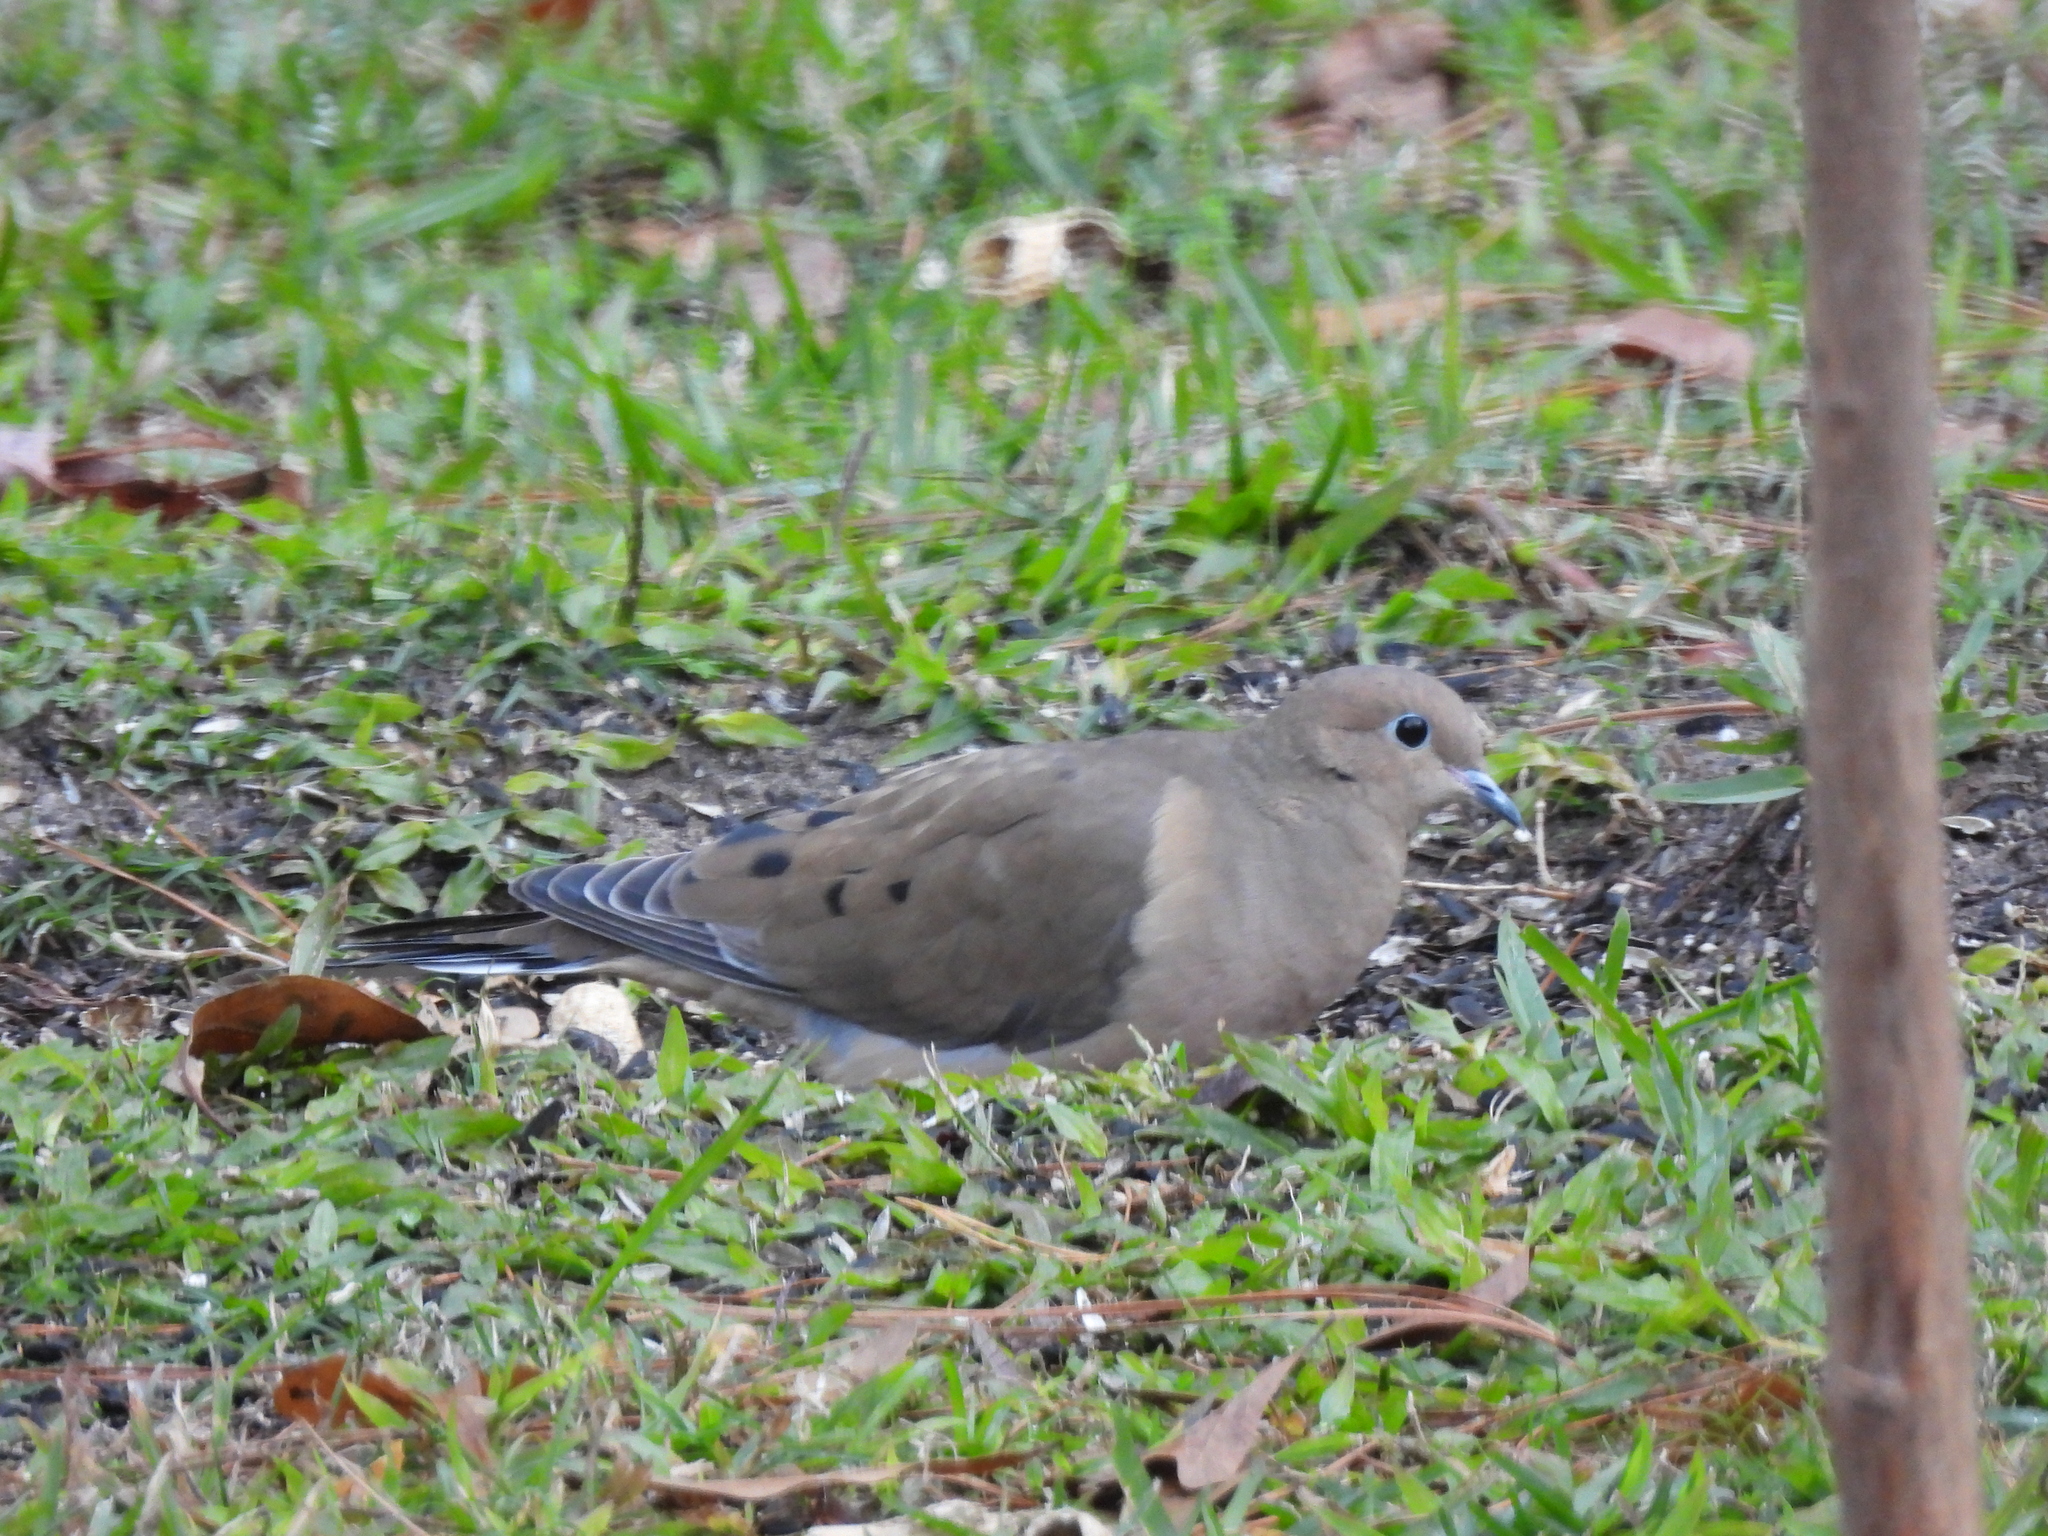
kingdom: Animalia
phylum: Chordata
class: Aves
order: Columbiformes
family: Columbidae
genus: Zenaida
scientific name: Zenaida macroura
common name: Mourning dove
